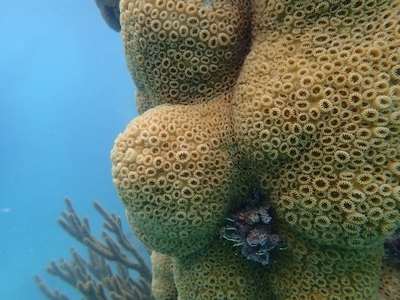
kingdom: Animalia
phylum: Cnidaria
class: Anthozoa
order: Zoantharia
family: Sphenopidae
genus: Palythoa
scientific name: Palythoa caribaeorum
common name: Encrusting colonial anemone
